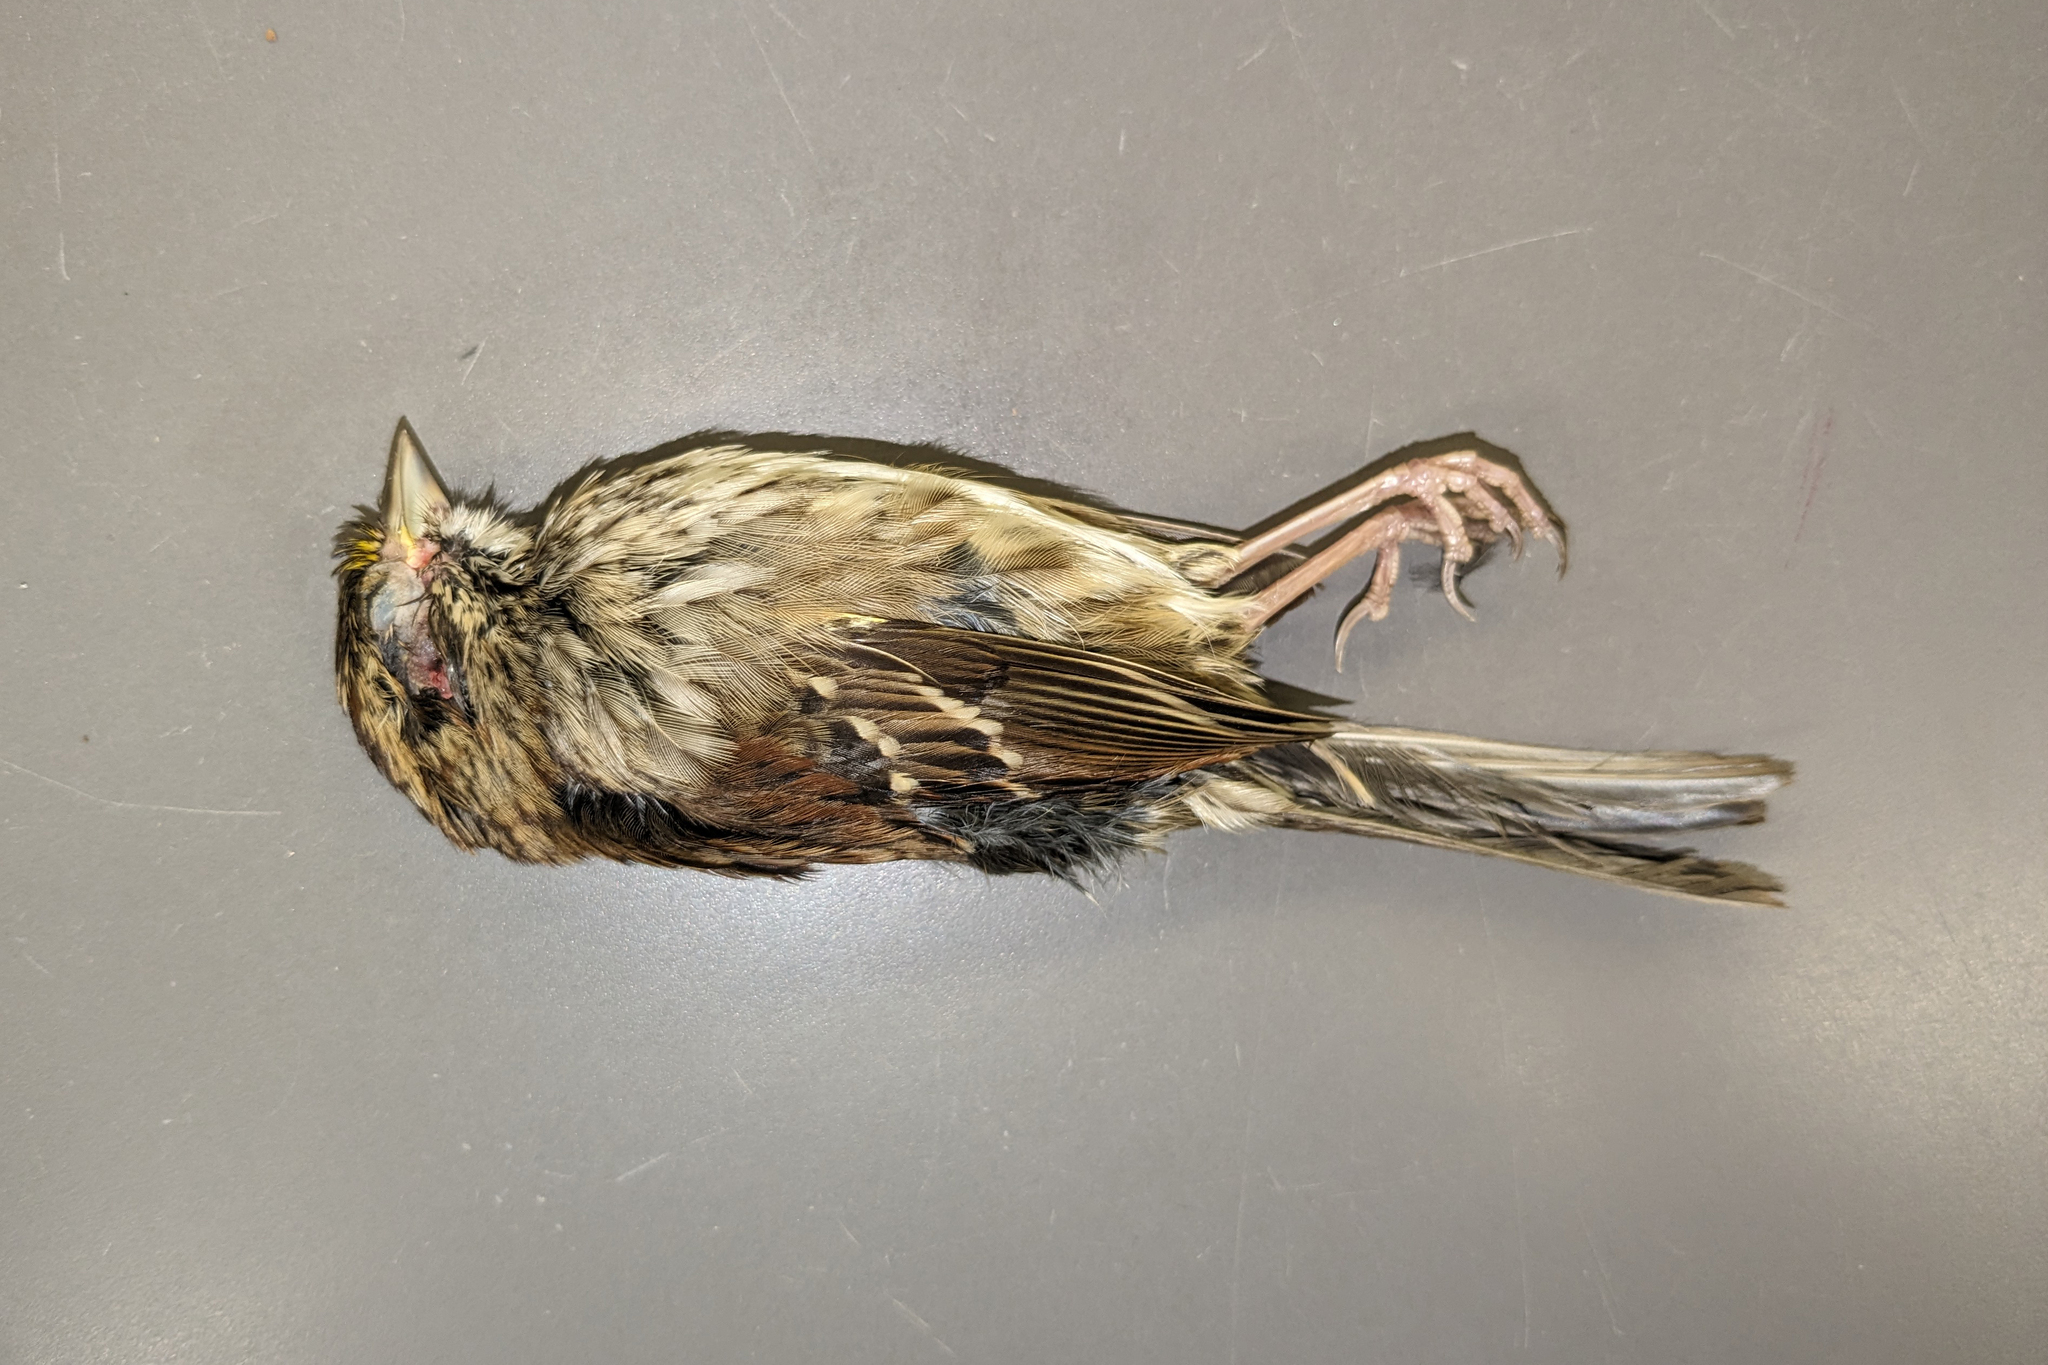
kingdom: Animalia
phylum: Chordata
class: Aves
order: Passeriformes
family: Passerellidae
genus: Zonotrichia
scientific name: Zonotrichia albicollis
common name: White-throated sparrow
